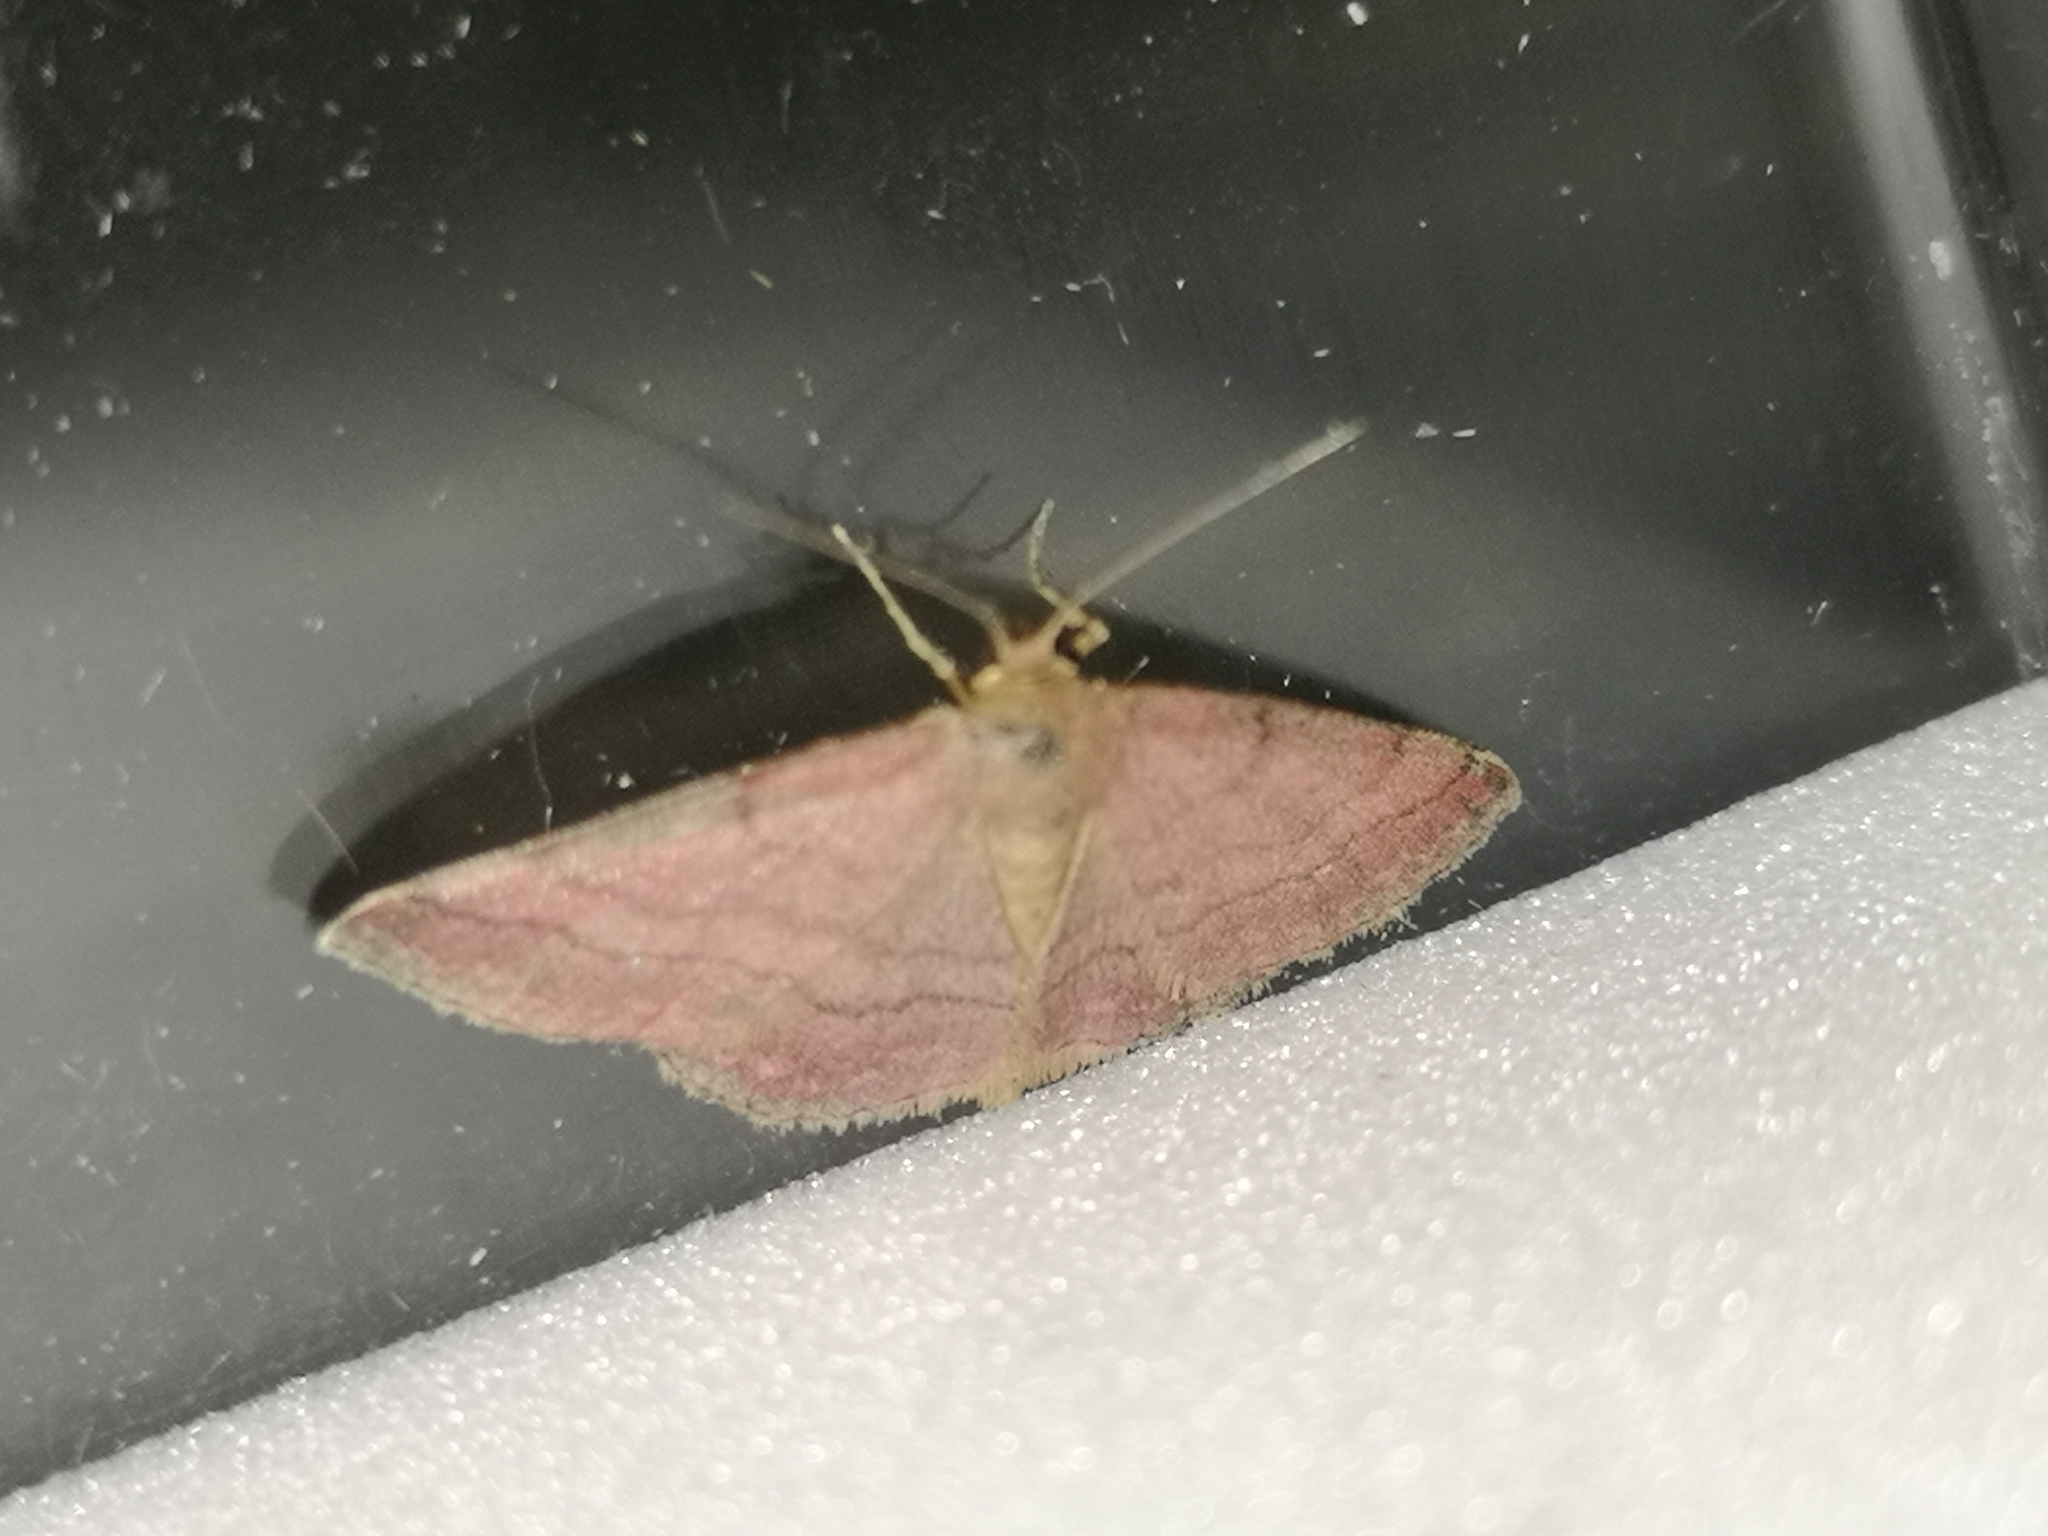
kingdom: Animalia
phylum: Arthropoda
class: Insecta
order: Lepidoptera
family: Geometridae
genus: Scopula
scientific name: Scopula rubiginata
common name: Tawny wave
